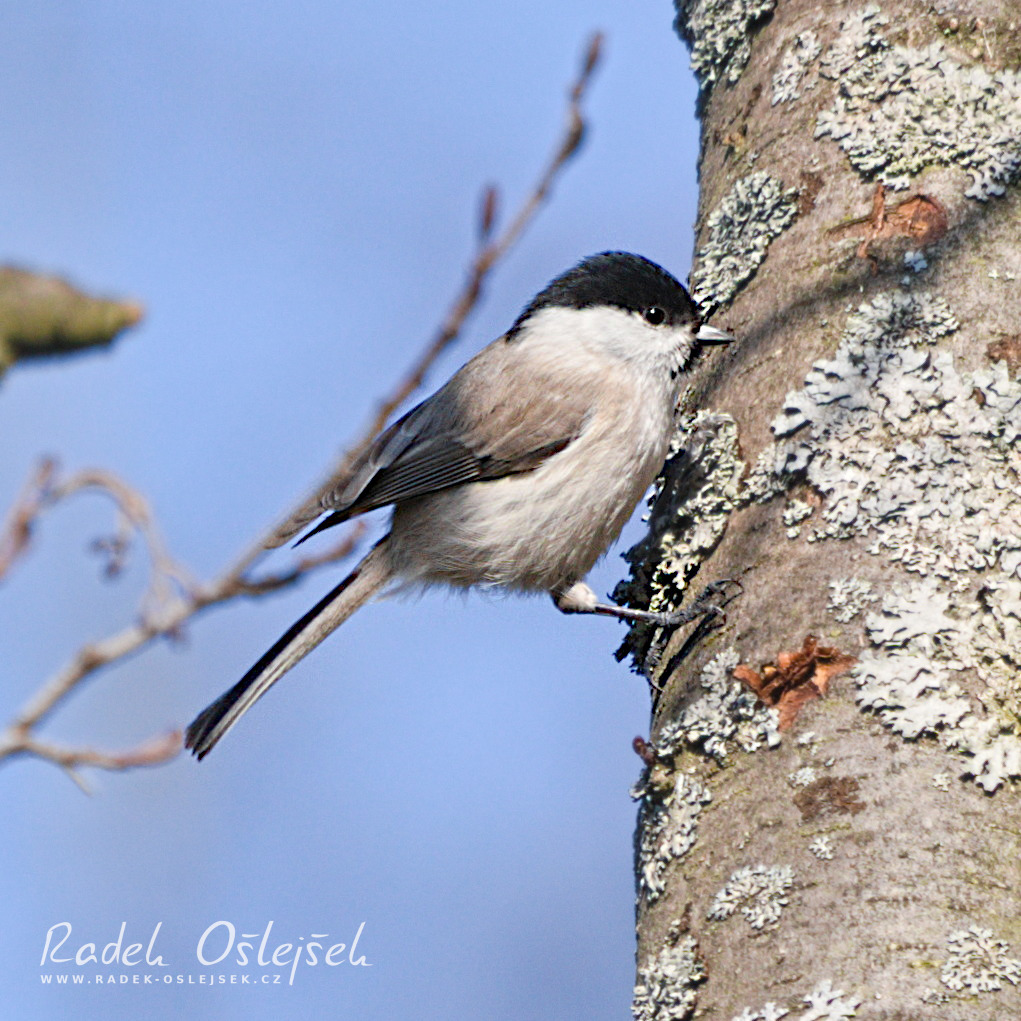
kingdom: Animalia
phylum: Chordata
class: Aves
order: Passeriformes
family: Paridae
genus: Poecile
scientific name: Poecile palustris
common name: Marsh tit
